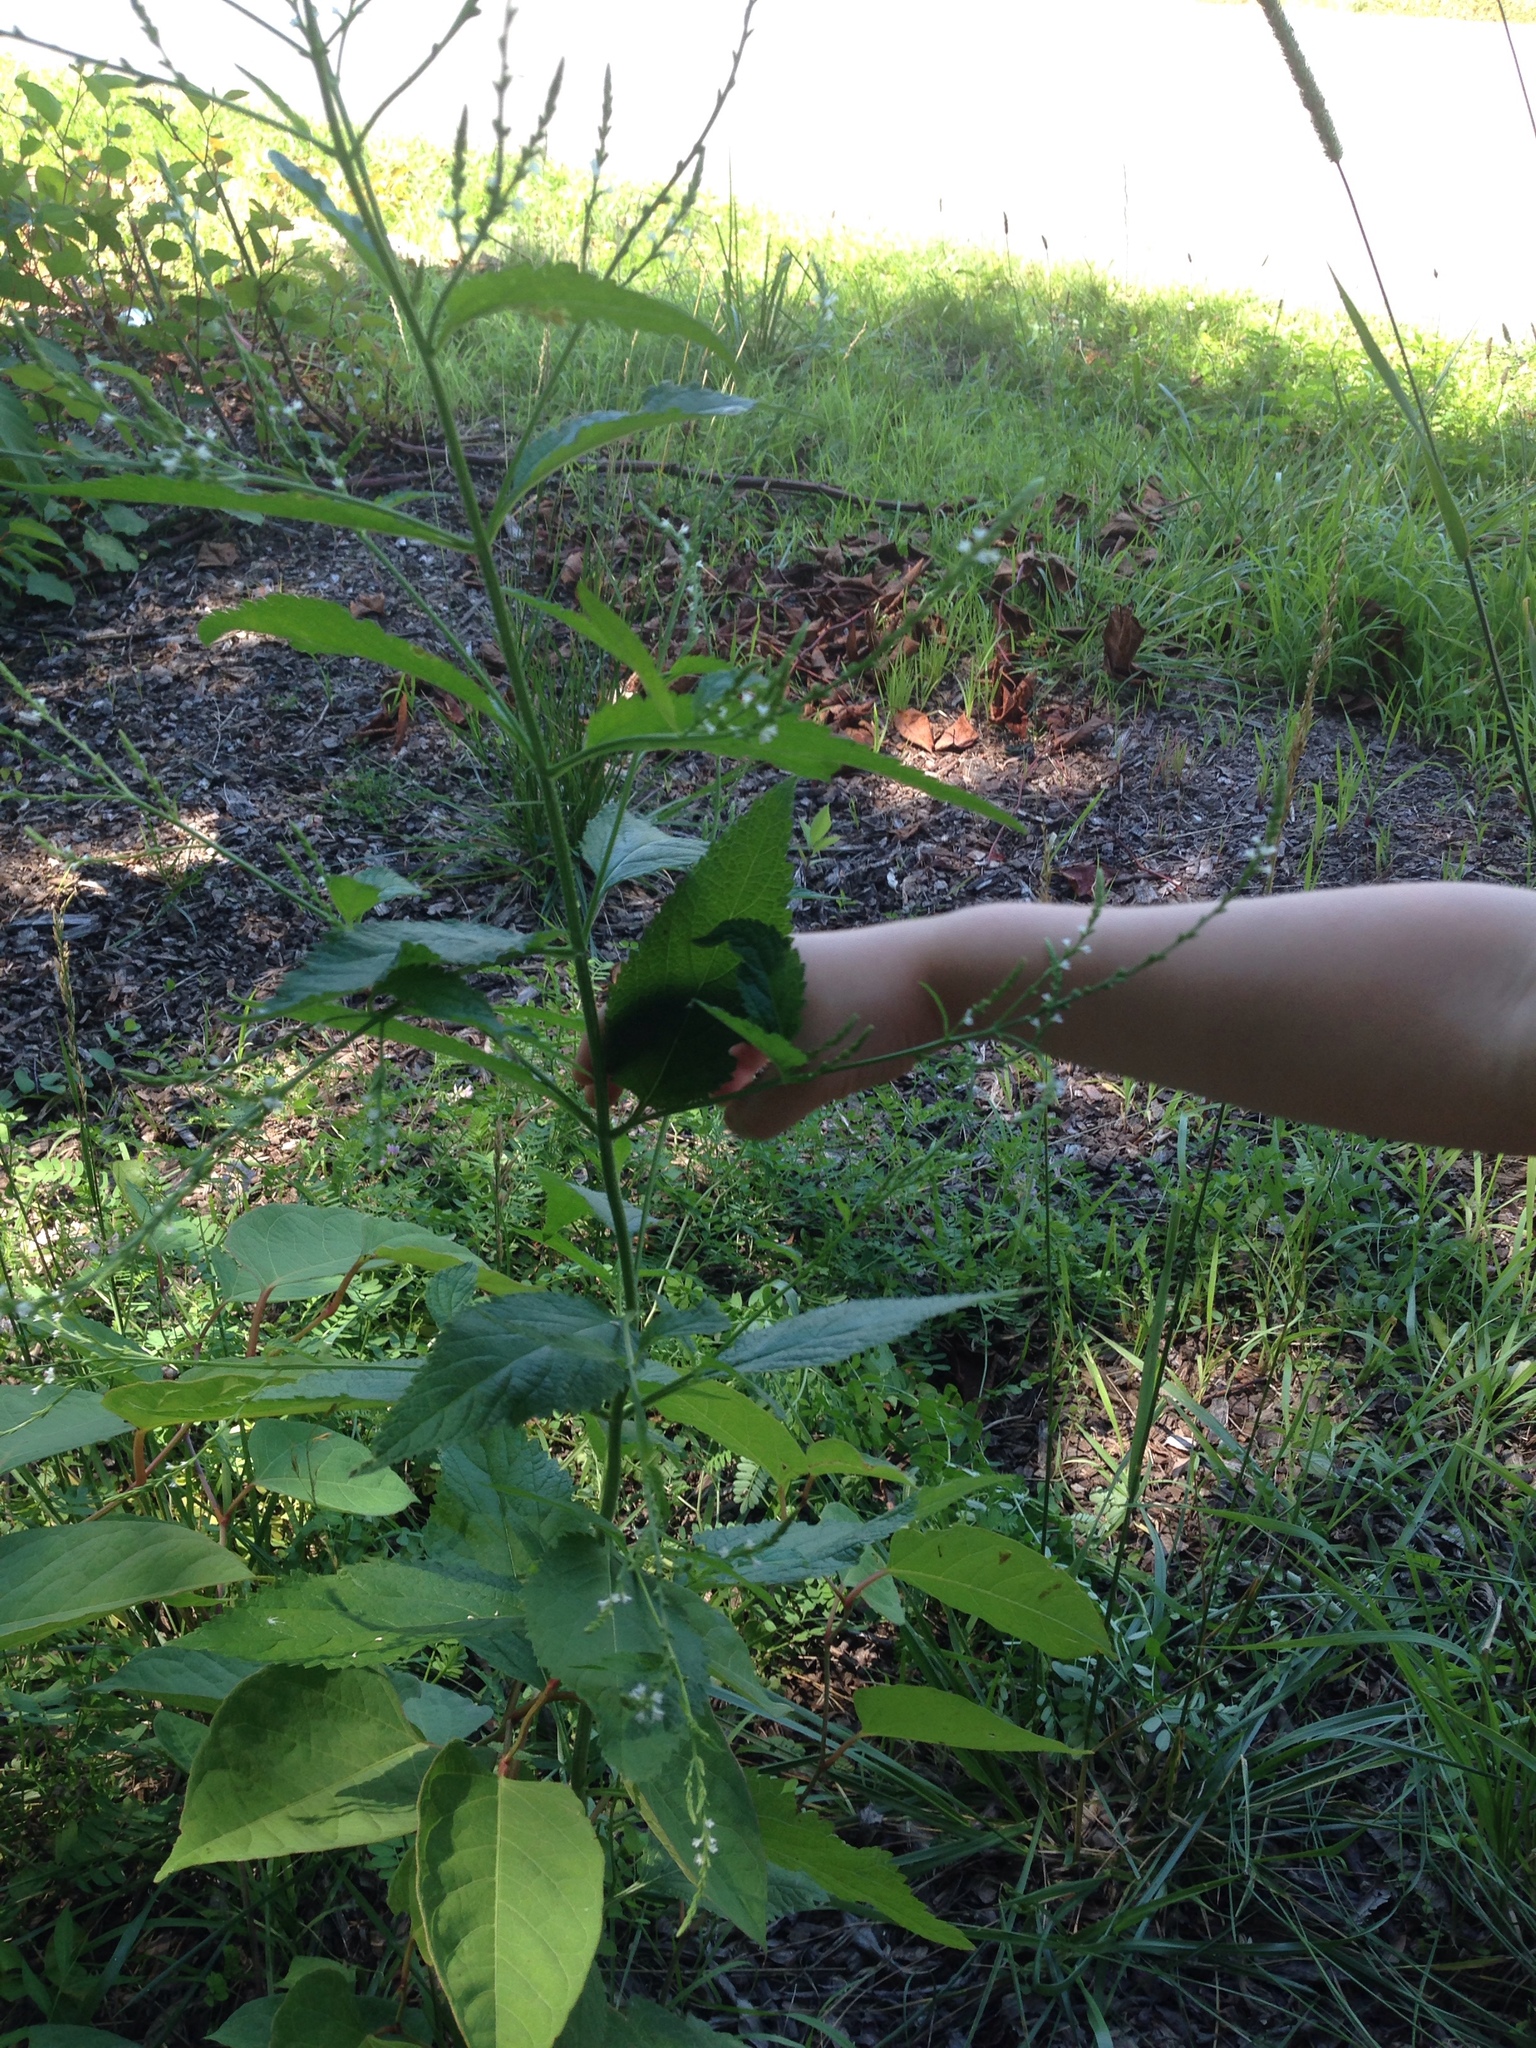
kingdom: Plantae
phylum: Tracheophyta
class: Magnoliopsida
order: Lamiales
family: Verbenaceae
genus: Verbena
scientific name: Verbena urticifolia
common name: Nettle-leaved vervain
